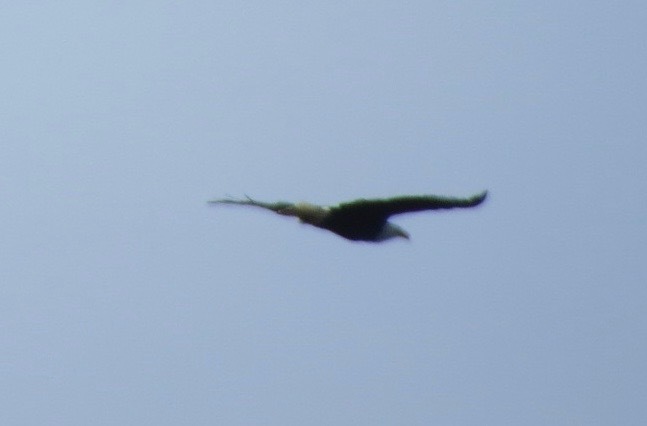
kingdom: Animalia
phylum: Chordata
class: Aves
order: Accipitriformes
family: Accipitridae
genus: Haliaeetus
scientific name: Haliaeetus leucocephalus
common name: Bald eagle
